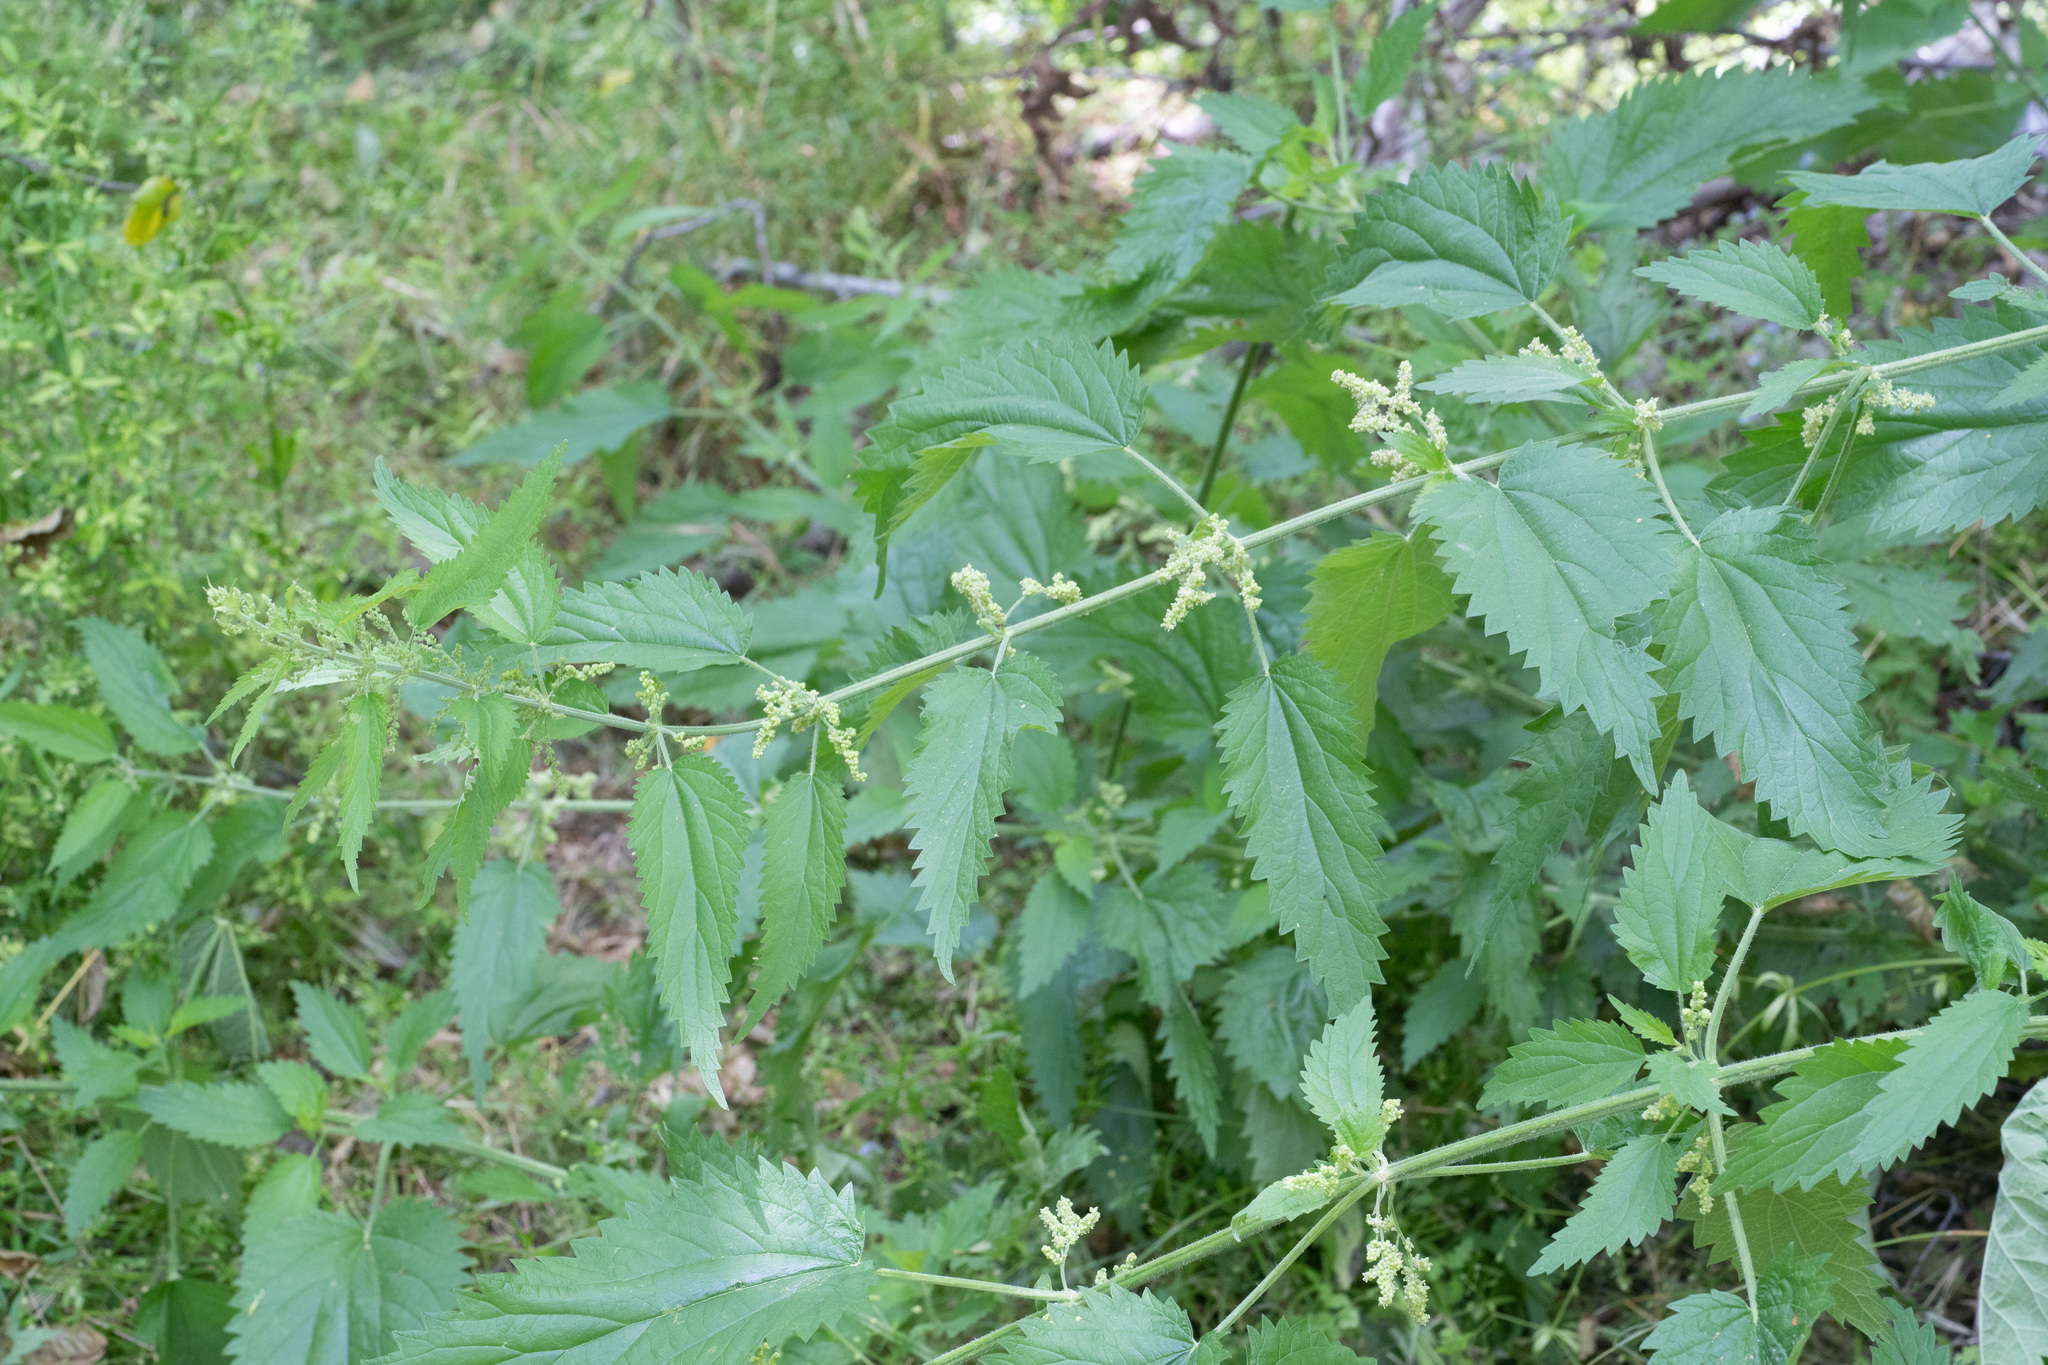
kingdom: Plantae
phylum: Tracheophyta
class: Magnoliopsida
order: Rosales
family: Urticaceae
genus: Urtica
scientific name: Urtica dioica
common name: Common nettle
